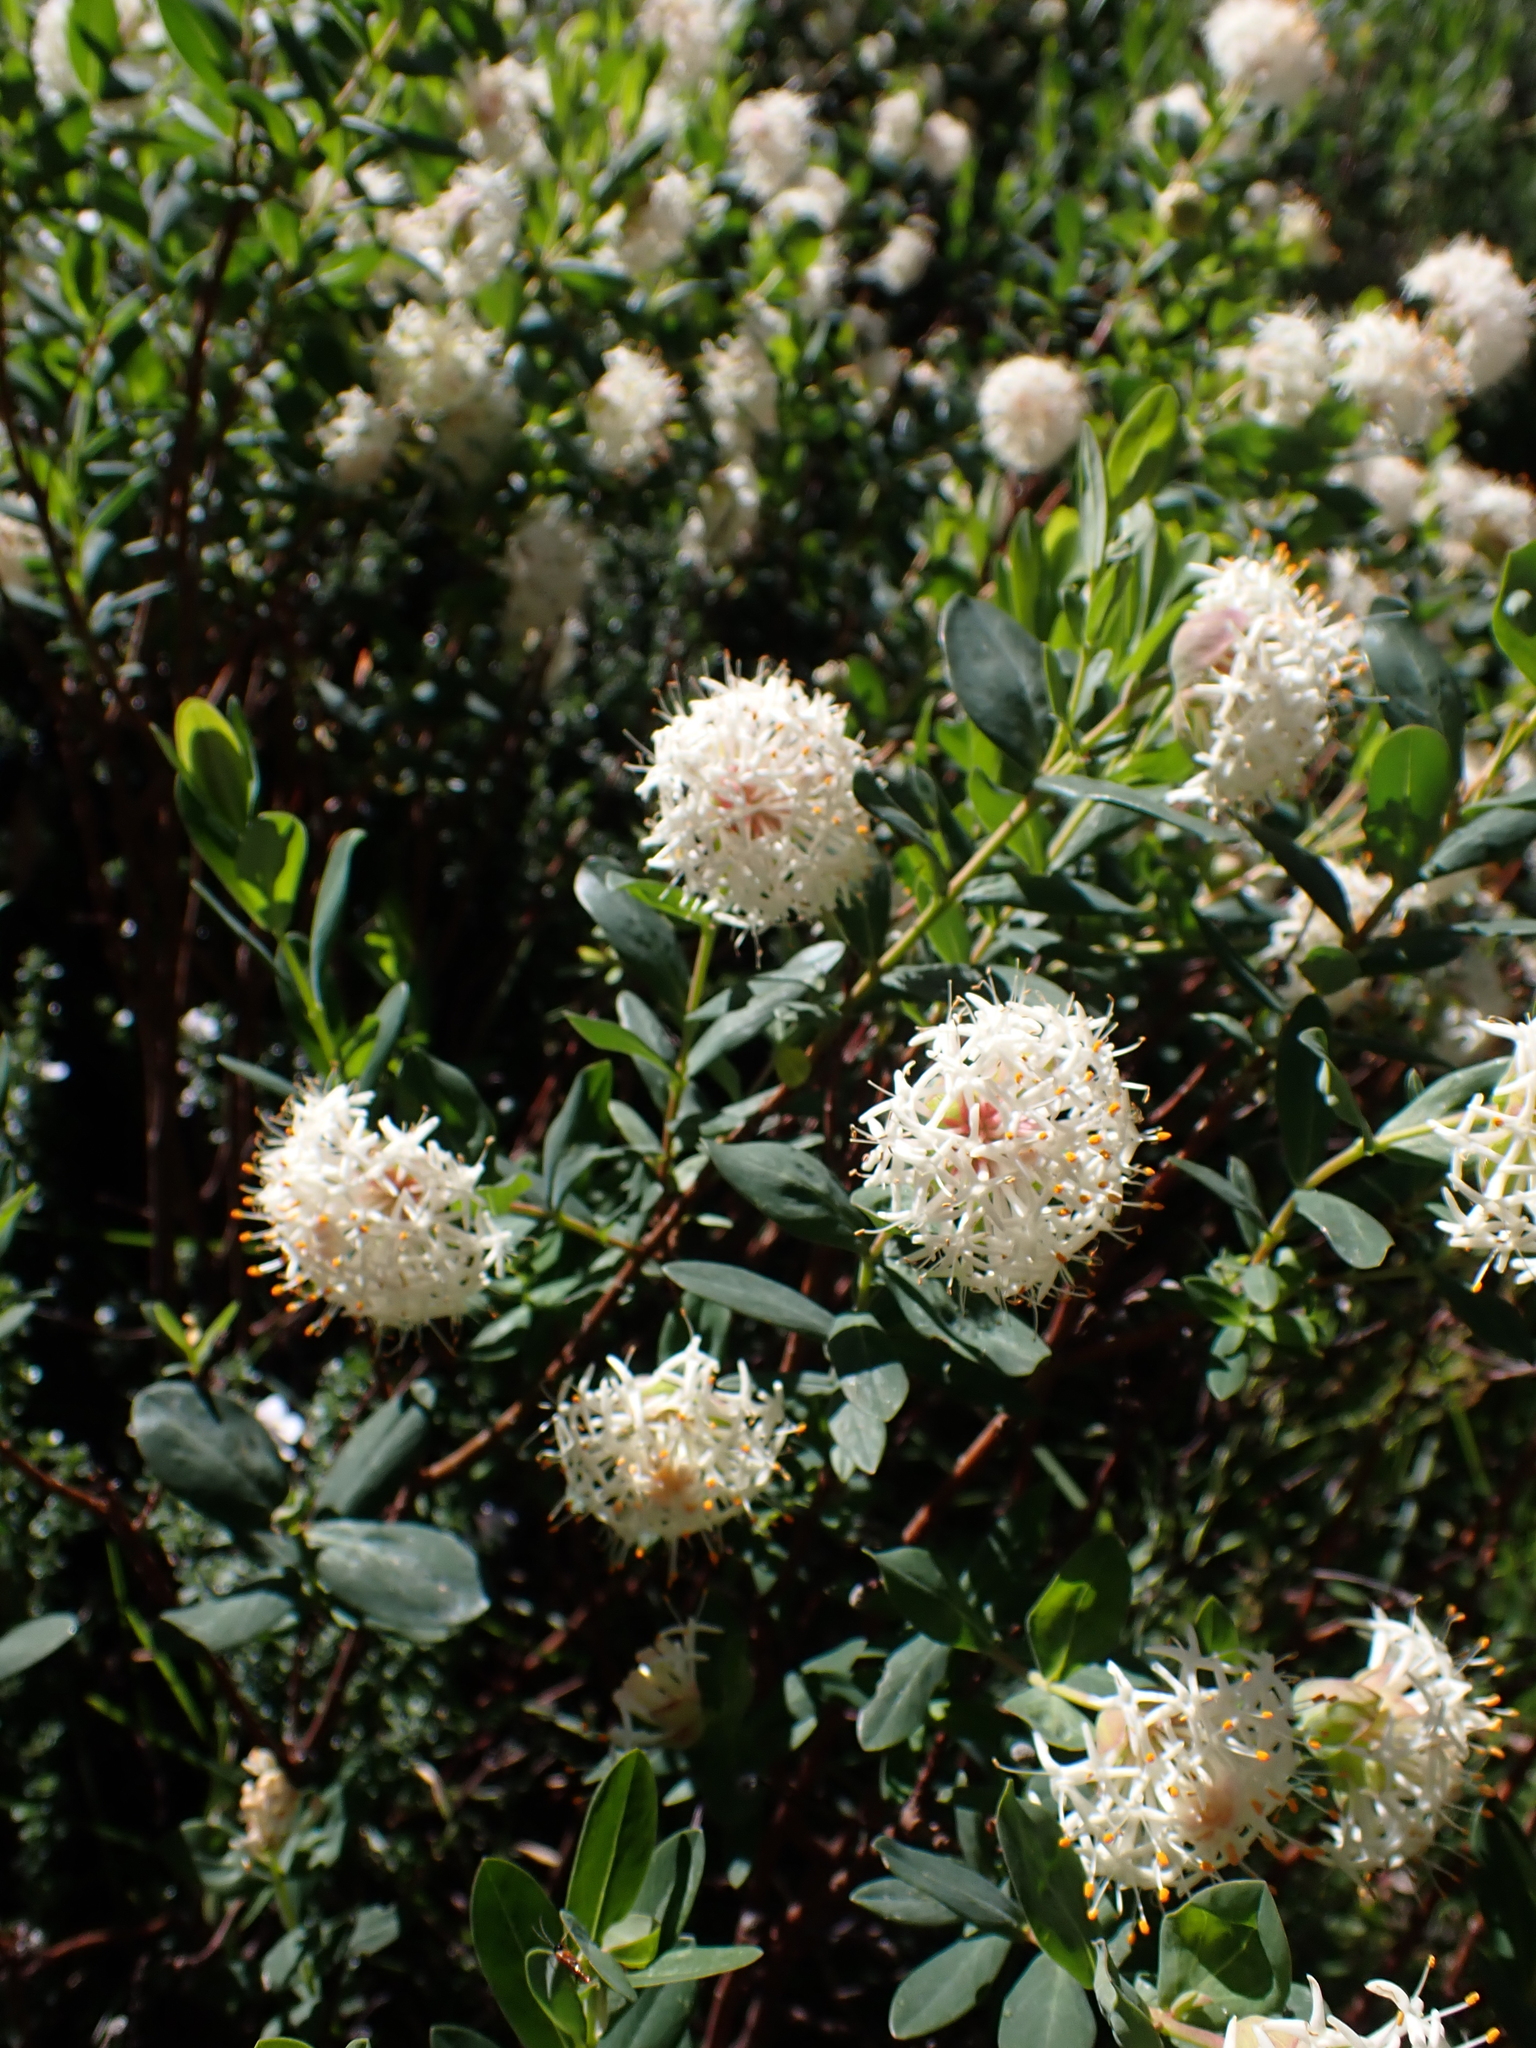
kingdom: Plantae
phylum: Tracheophyta
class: Magnoliopsida
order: Malvales
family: Thymelaeaceae
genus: Pimelea
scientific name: Pimelea ligustrina
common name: Tall riceflower
